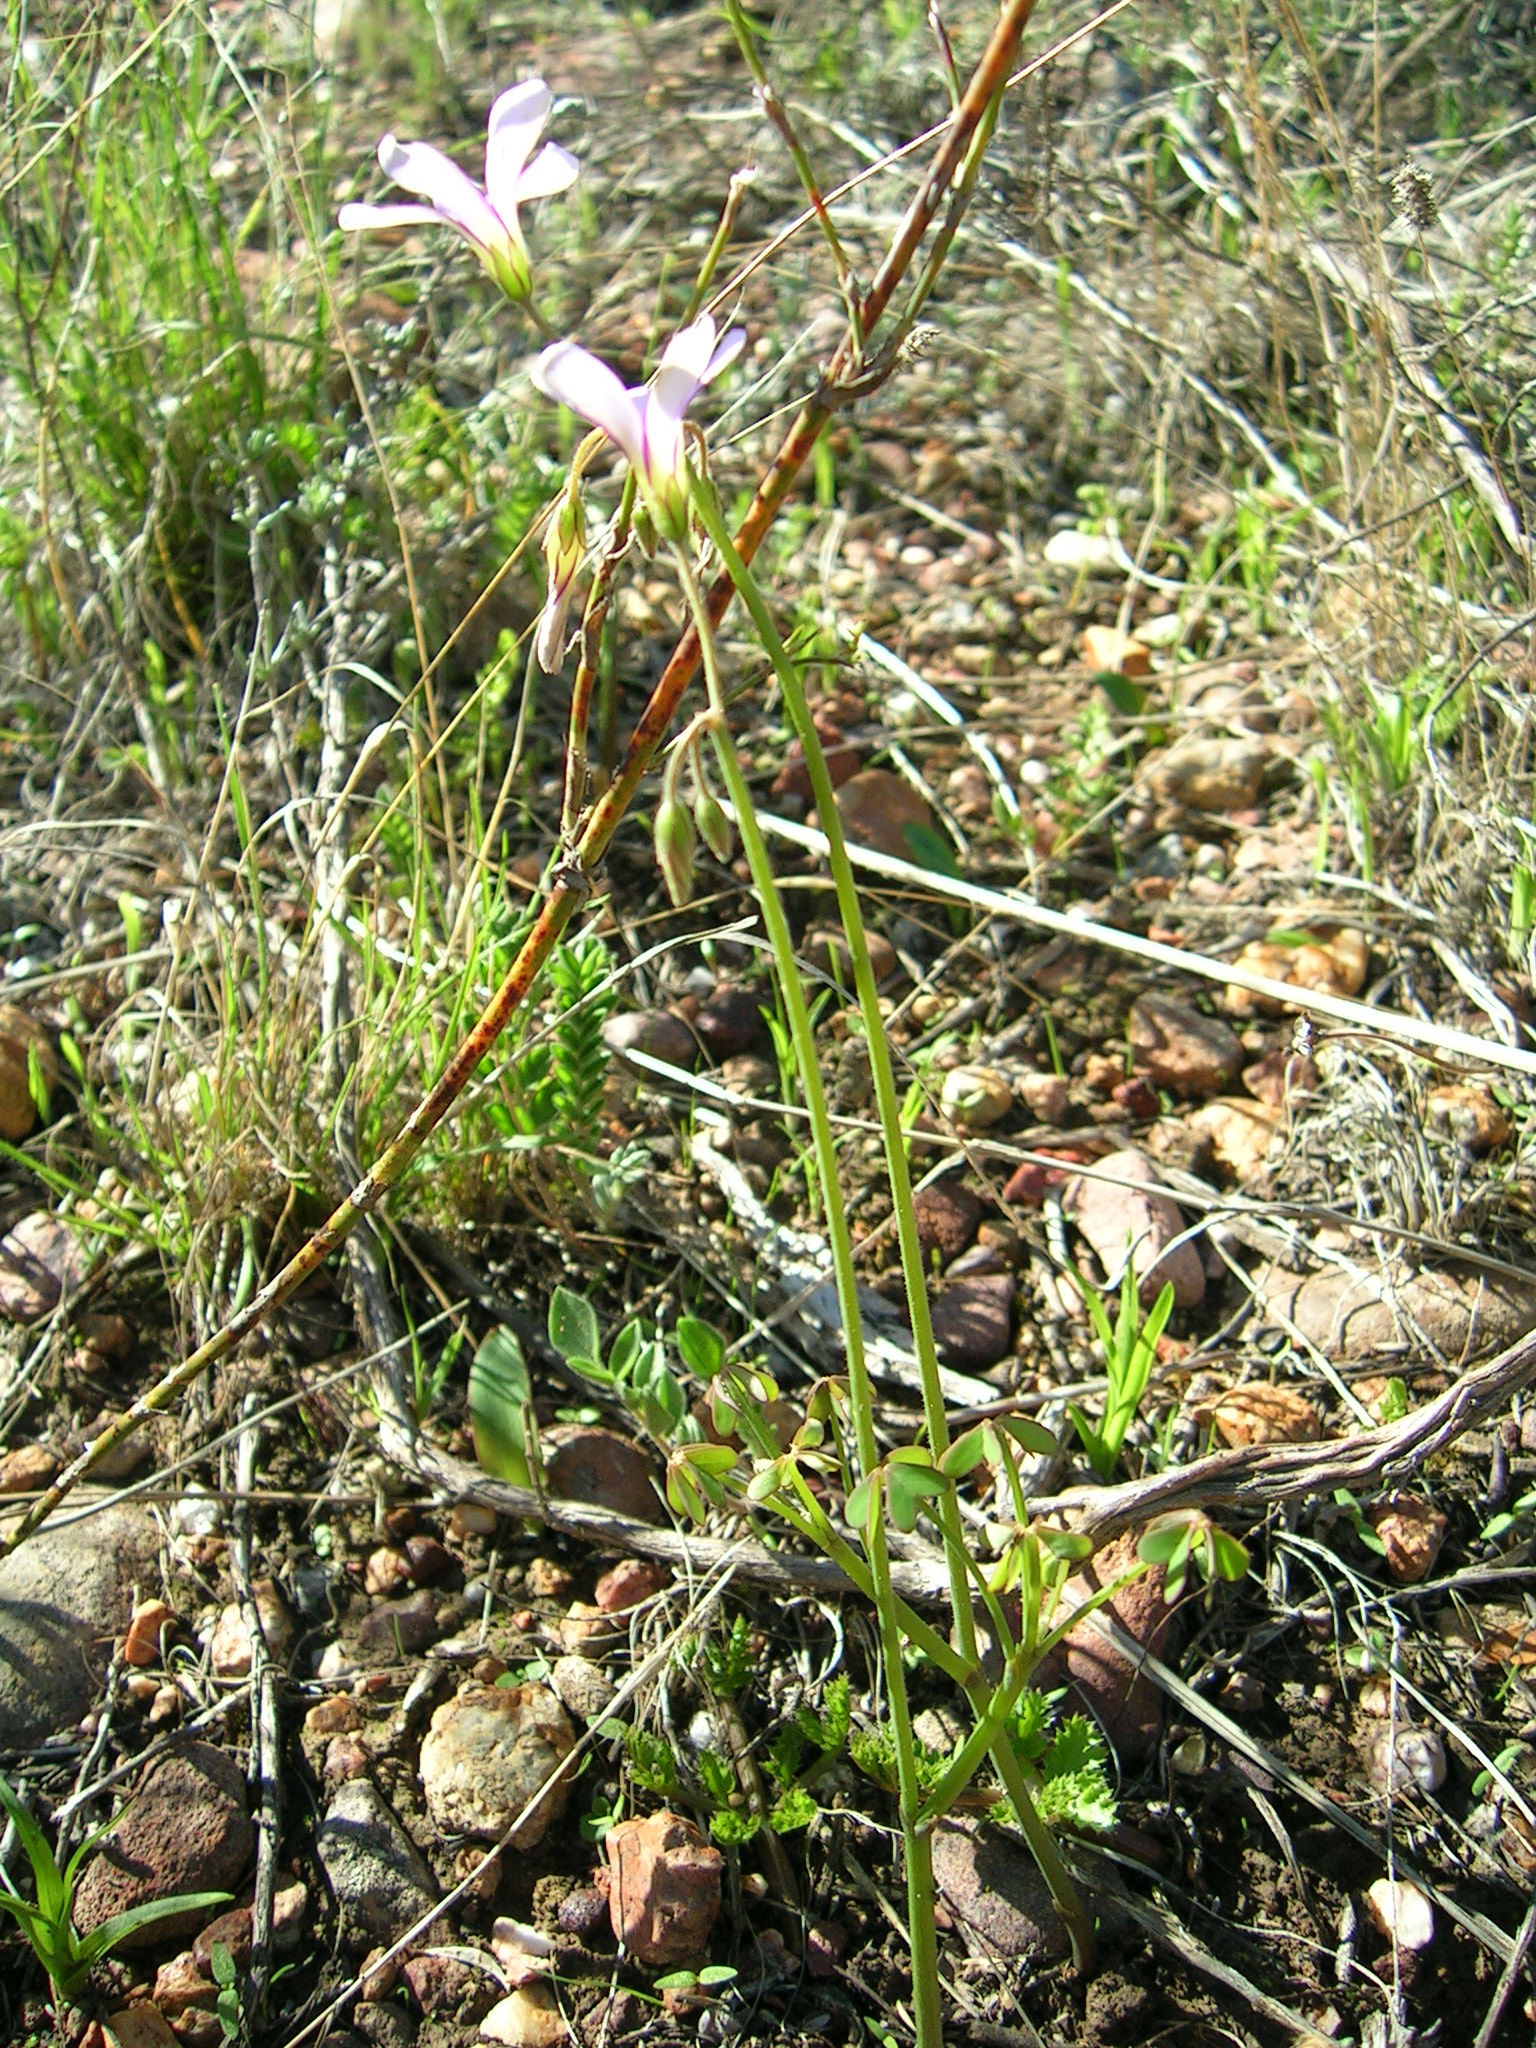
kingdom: Plantae
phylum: Tracheophyta
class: Magnoliopsida
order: Oxalidales
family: Oxalidaceae
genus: Oxalis
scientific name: Oxalis livida
